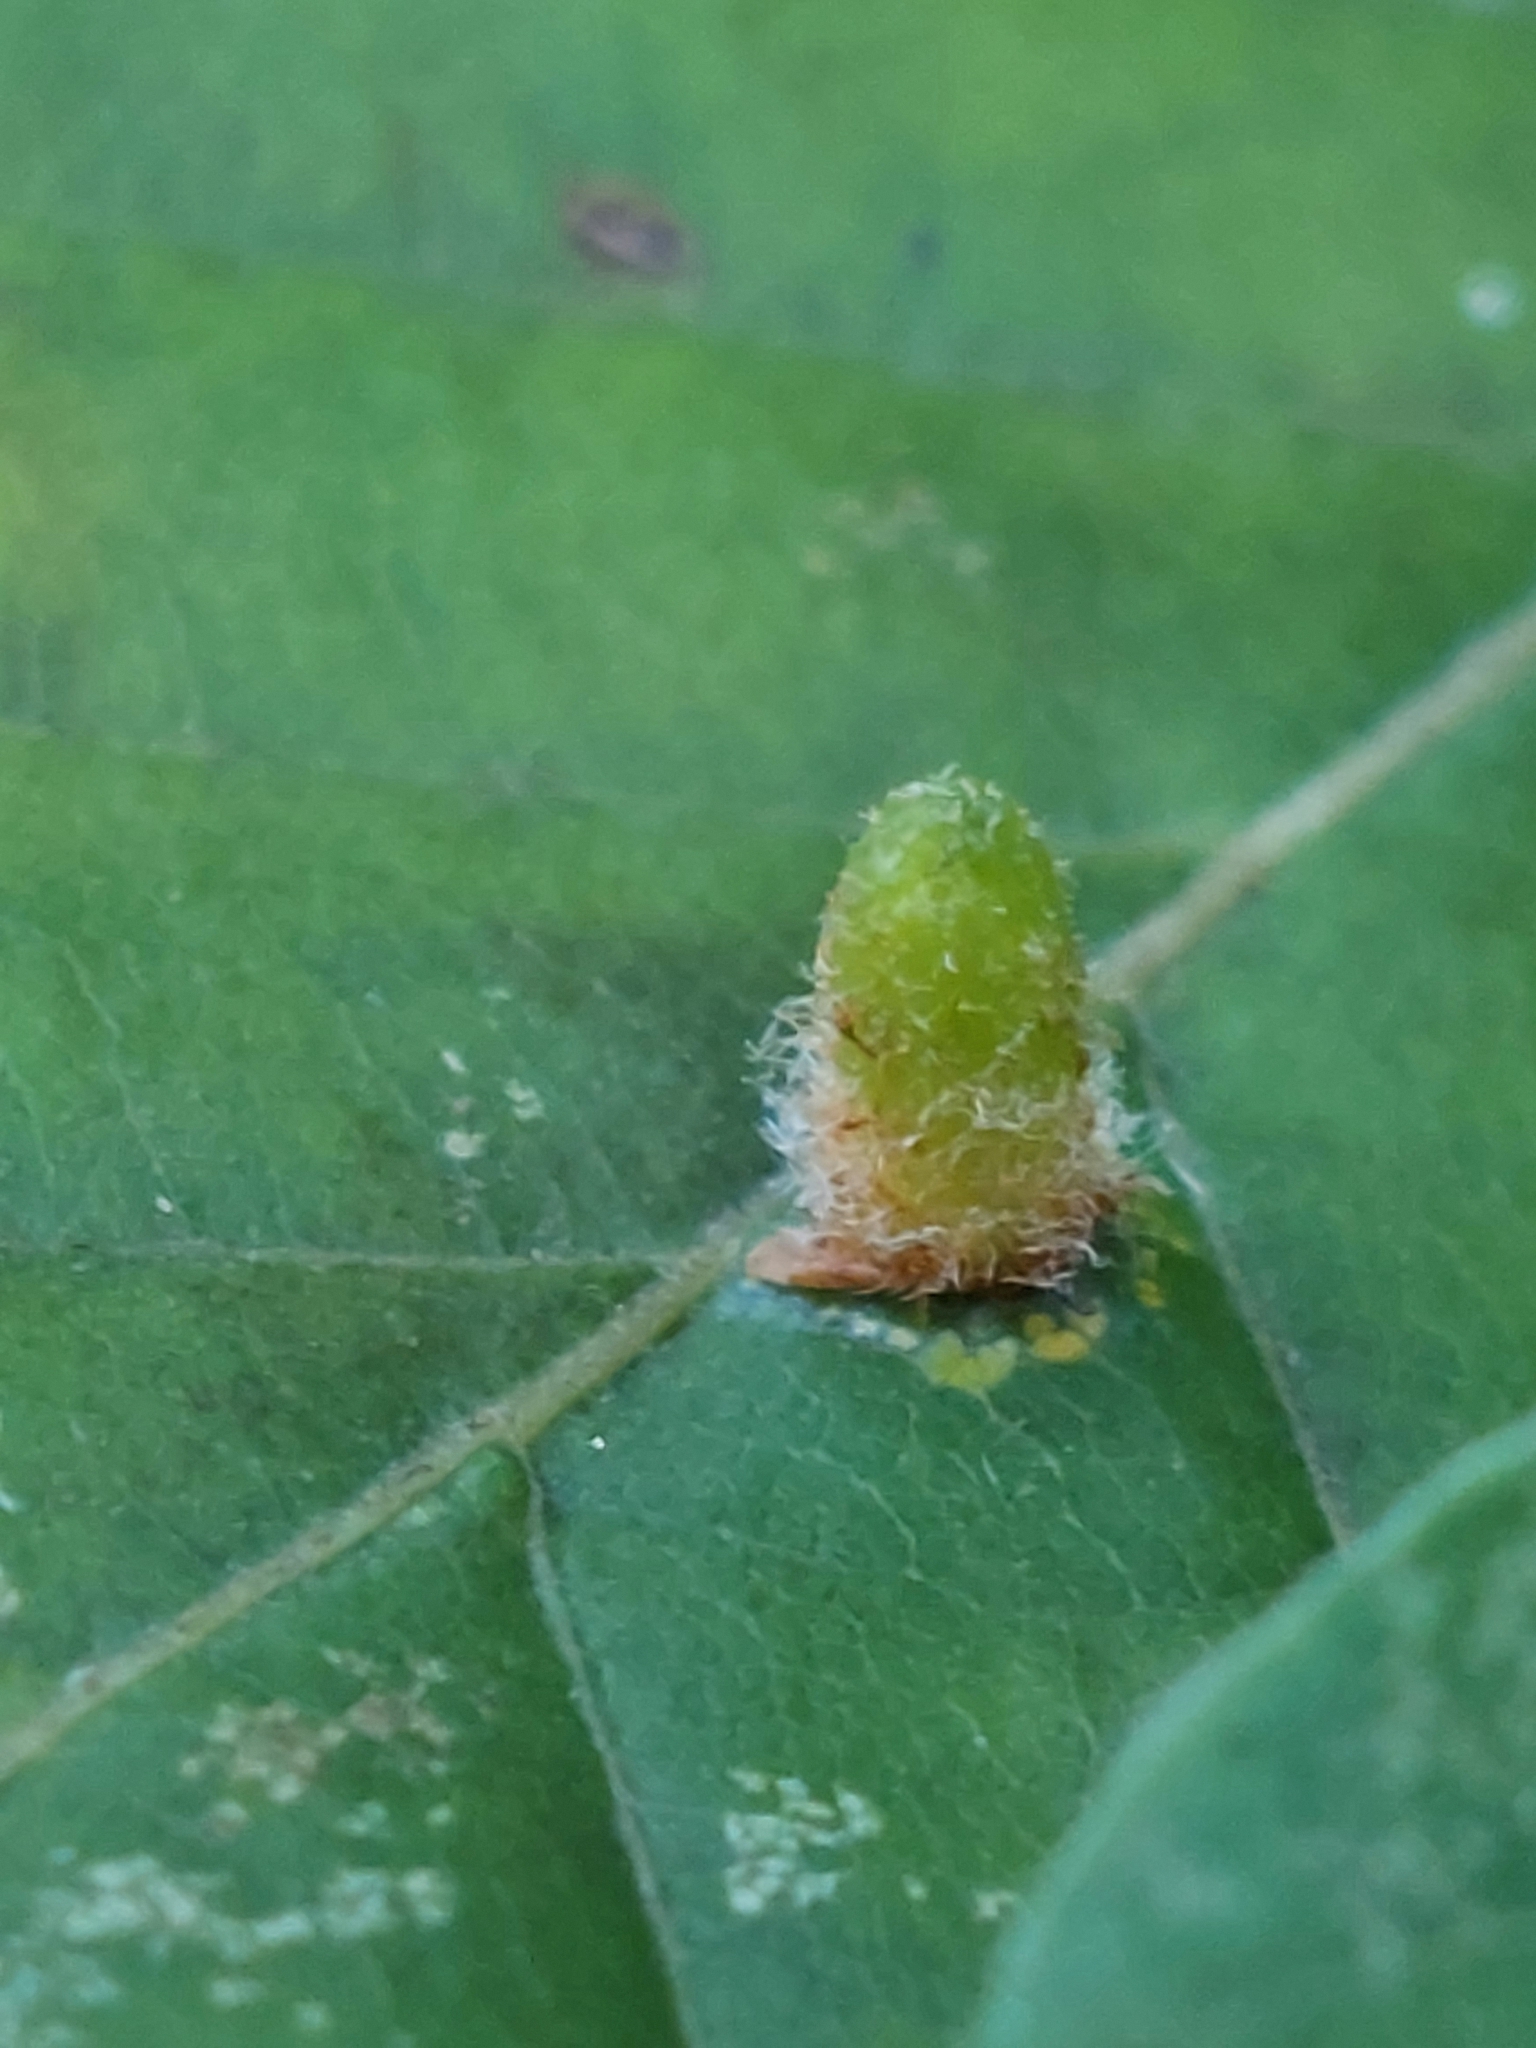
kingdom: Animalia
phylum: Arthropoda
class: Insecta
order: Diptera
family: Cecidomyiidae
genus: Hartigiola
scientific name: Hartigiola annulipes
